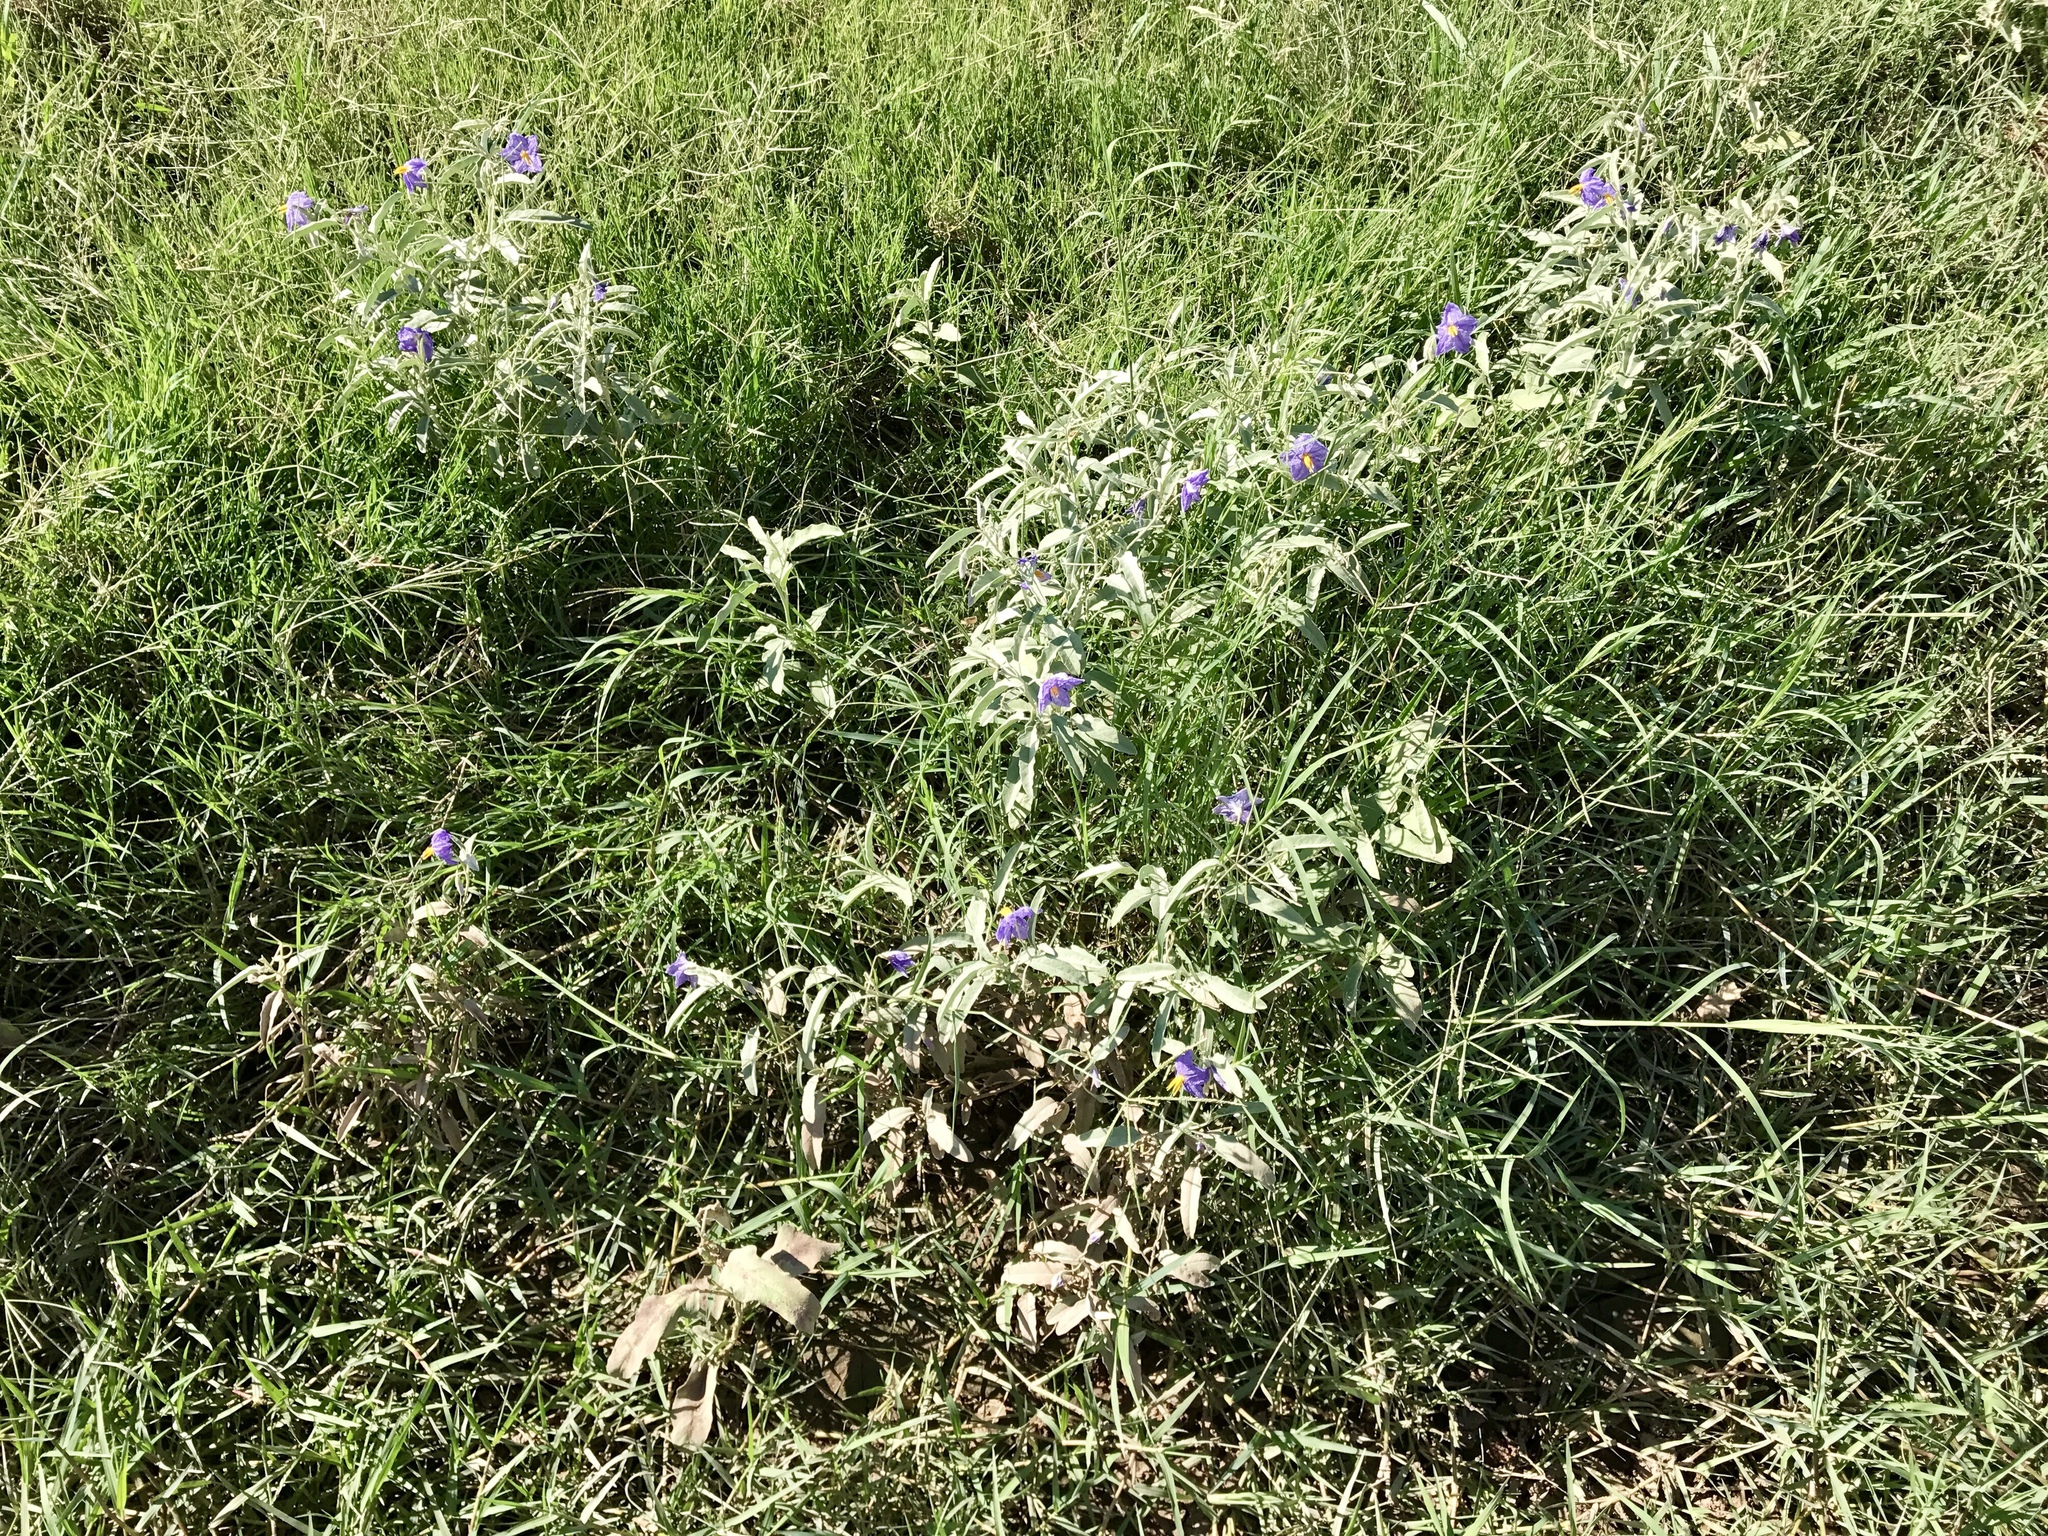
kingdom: Plantae
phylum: Tracheophyta
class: Magnoliopsida
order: Solanales
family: Solanaceae
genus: Solanum
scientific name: Solanum elaeagnifolium
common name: Silverleaf nightshade
